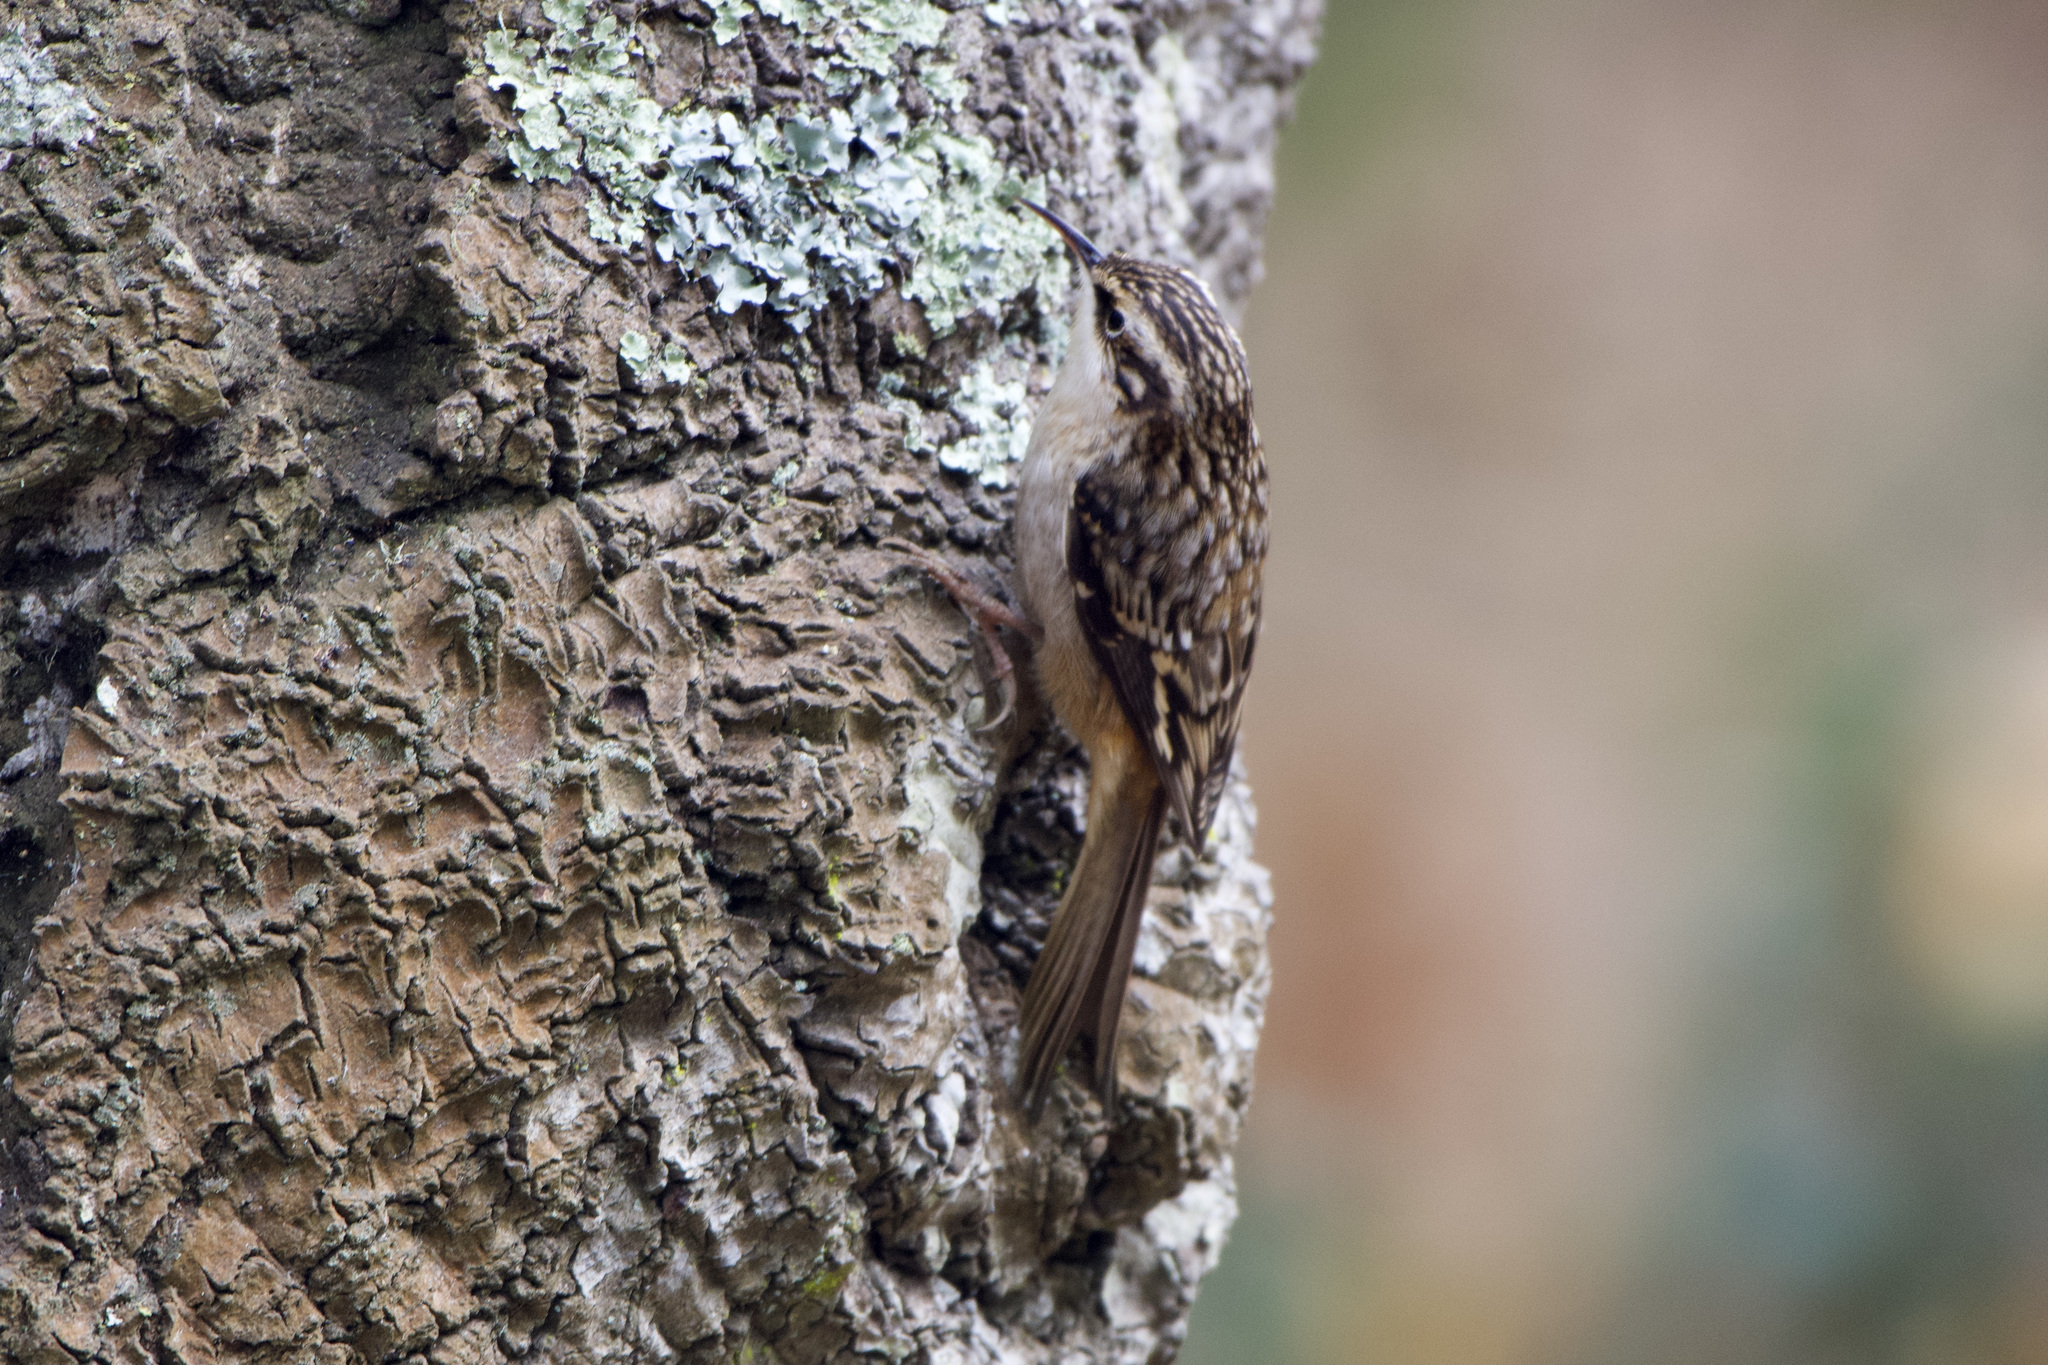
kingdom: Animalia
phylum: Chordata
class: Aves
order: Passeriformes
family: Certhiidae
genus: Certhia
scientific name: Certhia americana
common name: Brown creeper
